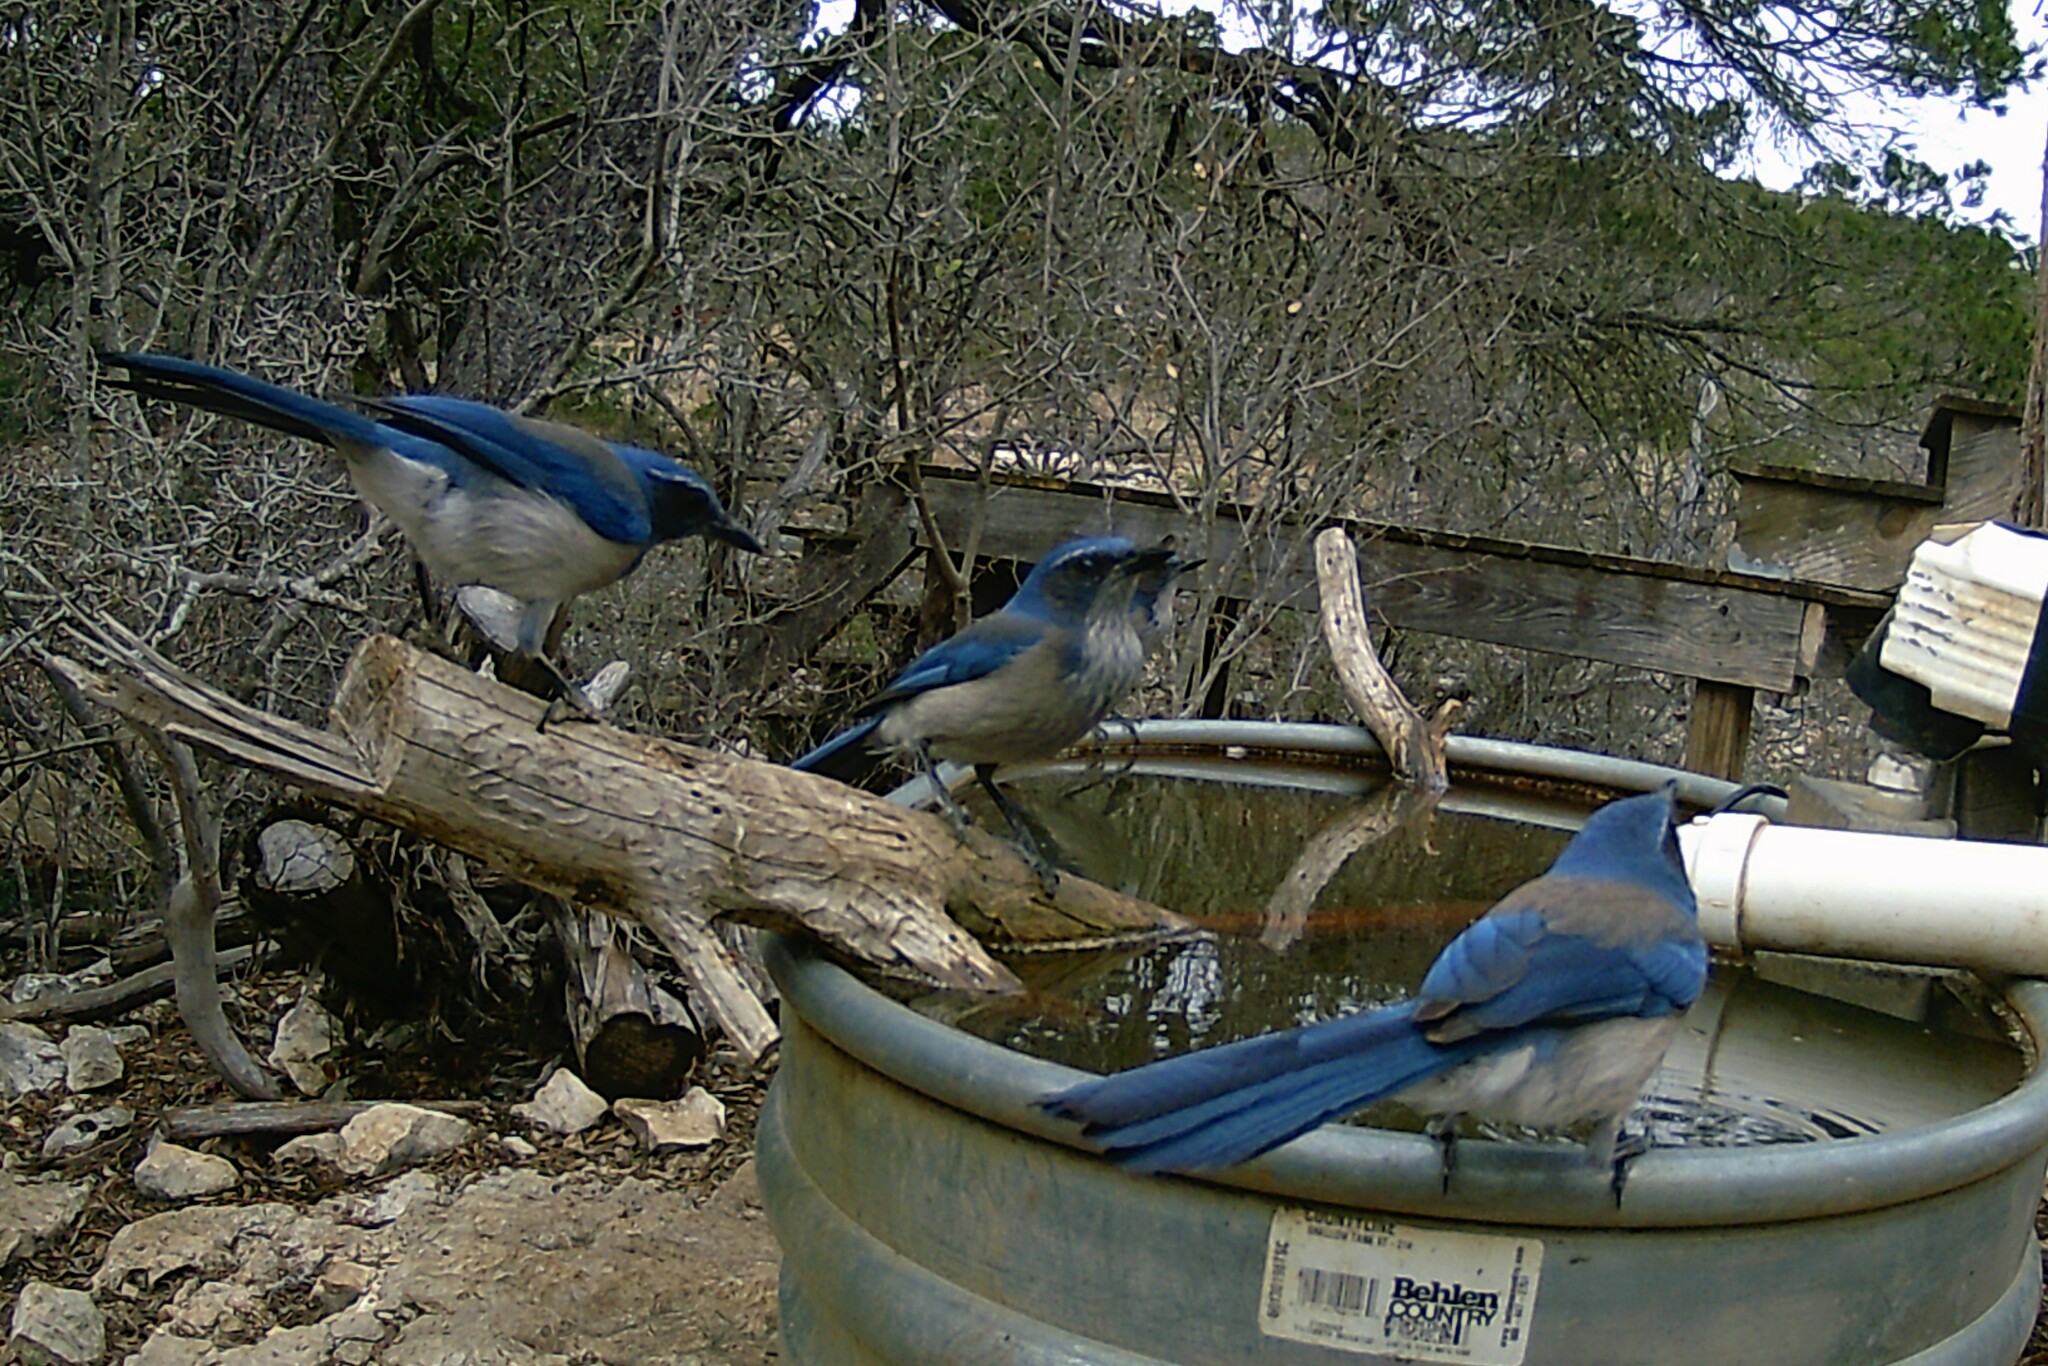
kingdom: Animalia
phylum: Chordata
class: Aves
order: Passeriformes
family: Corvidae
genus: Aphelocoma
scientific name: Aphelocoma woodhouseii
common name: Woodhouse's scrub-jay
